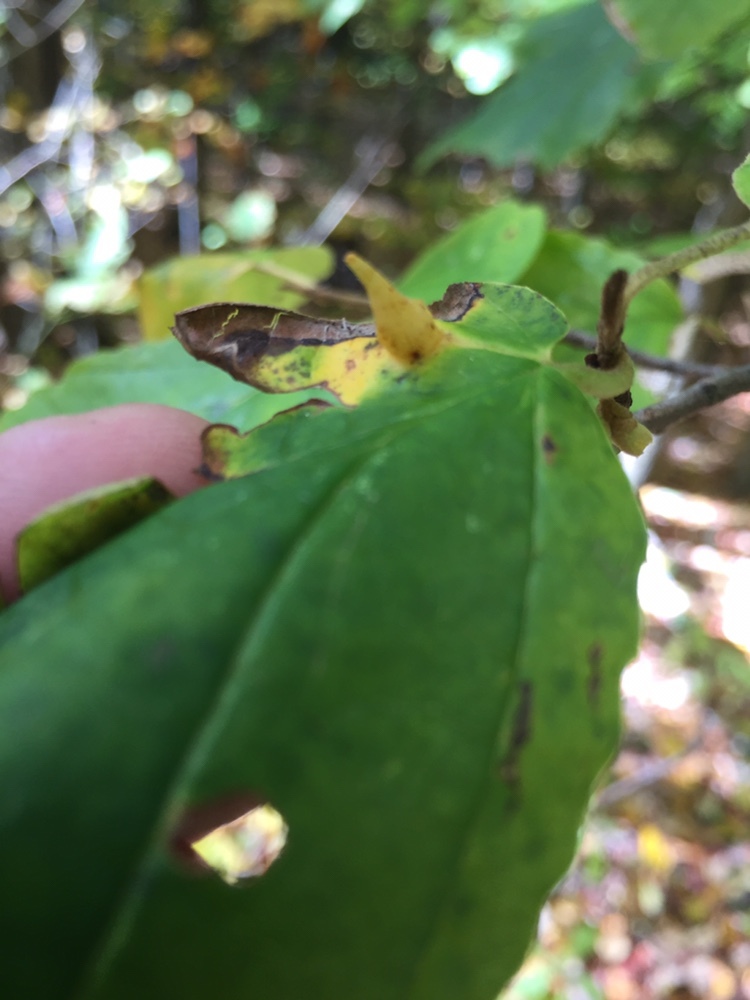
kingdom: Animalia
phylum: Arthropoda
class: Insecta
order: Hemiptera
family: Aphididae
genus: Hormaphis
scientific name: Hormaphis hamamelidis
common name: Witch-hazel cone gall aphid
